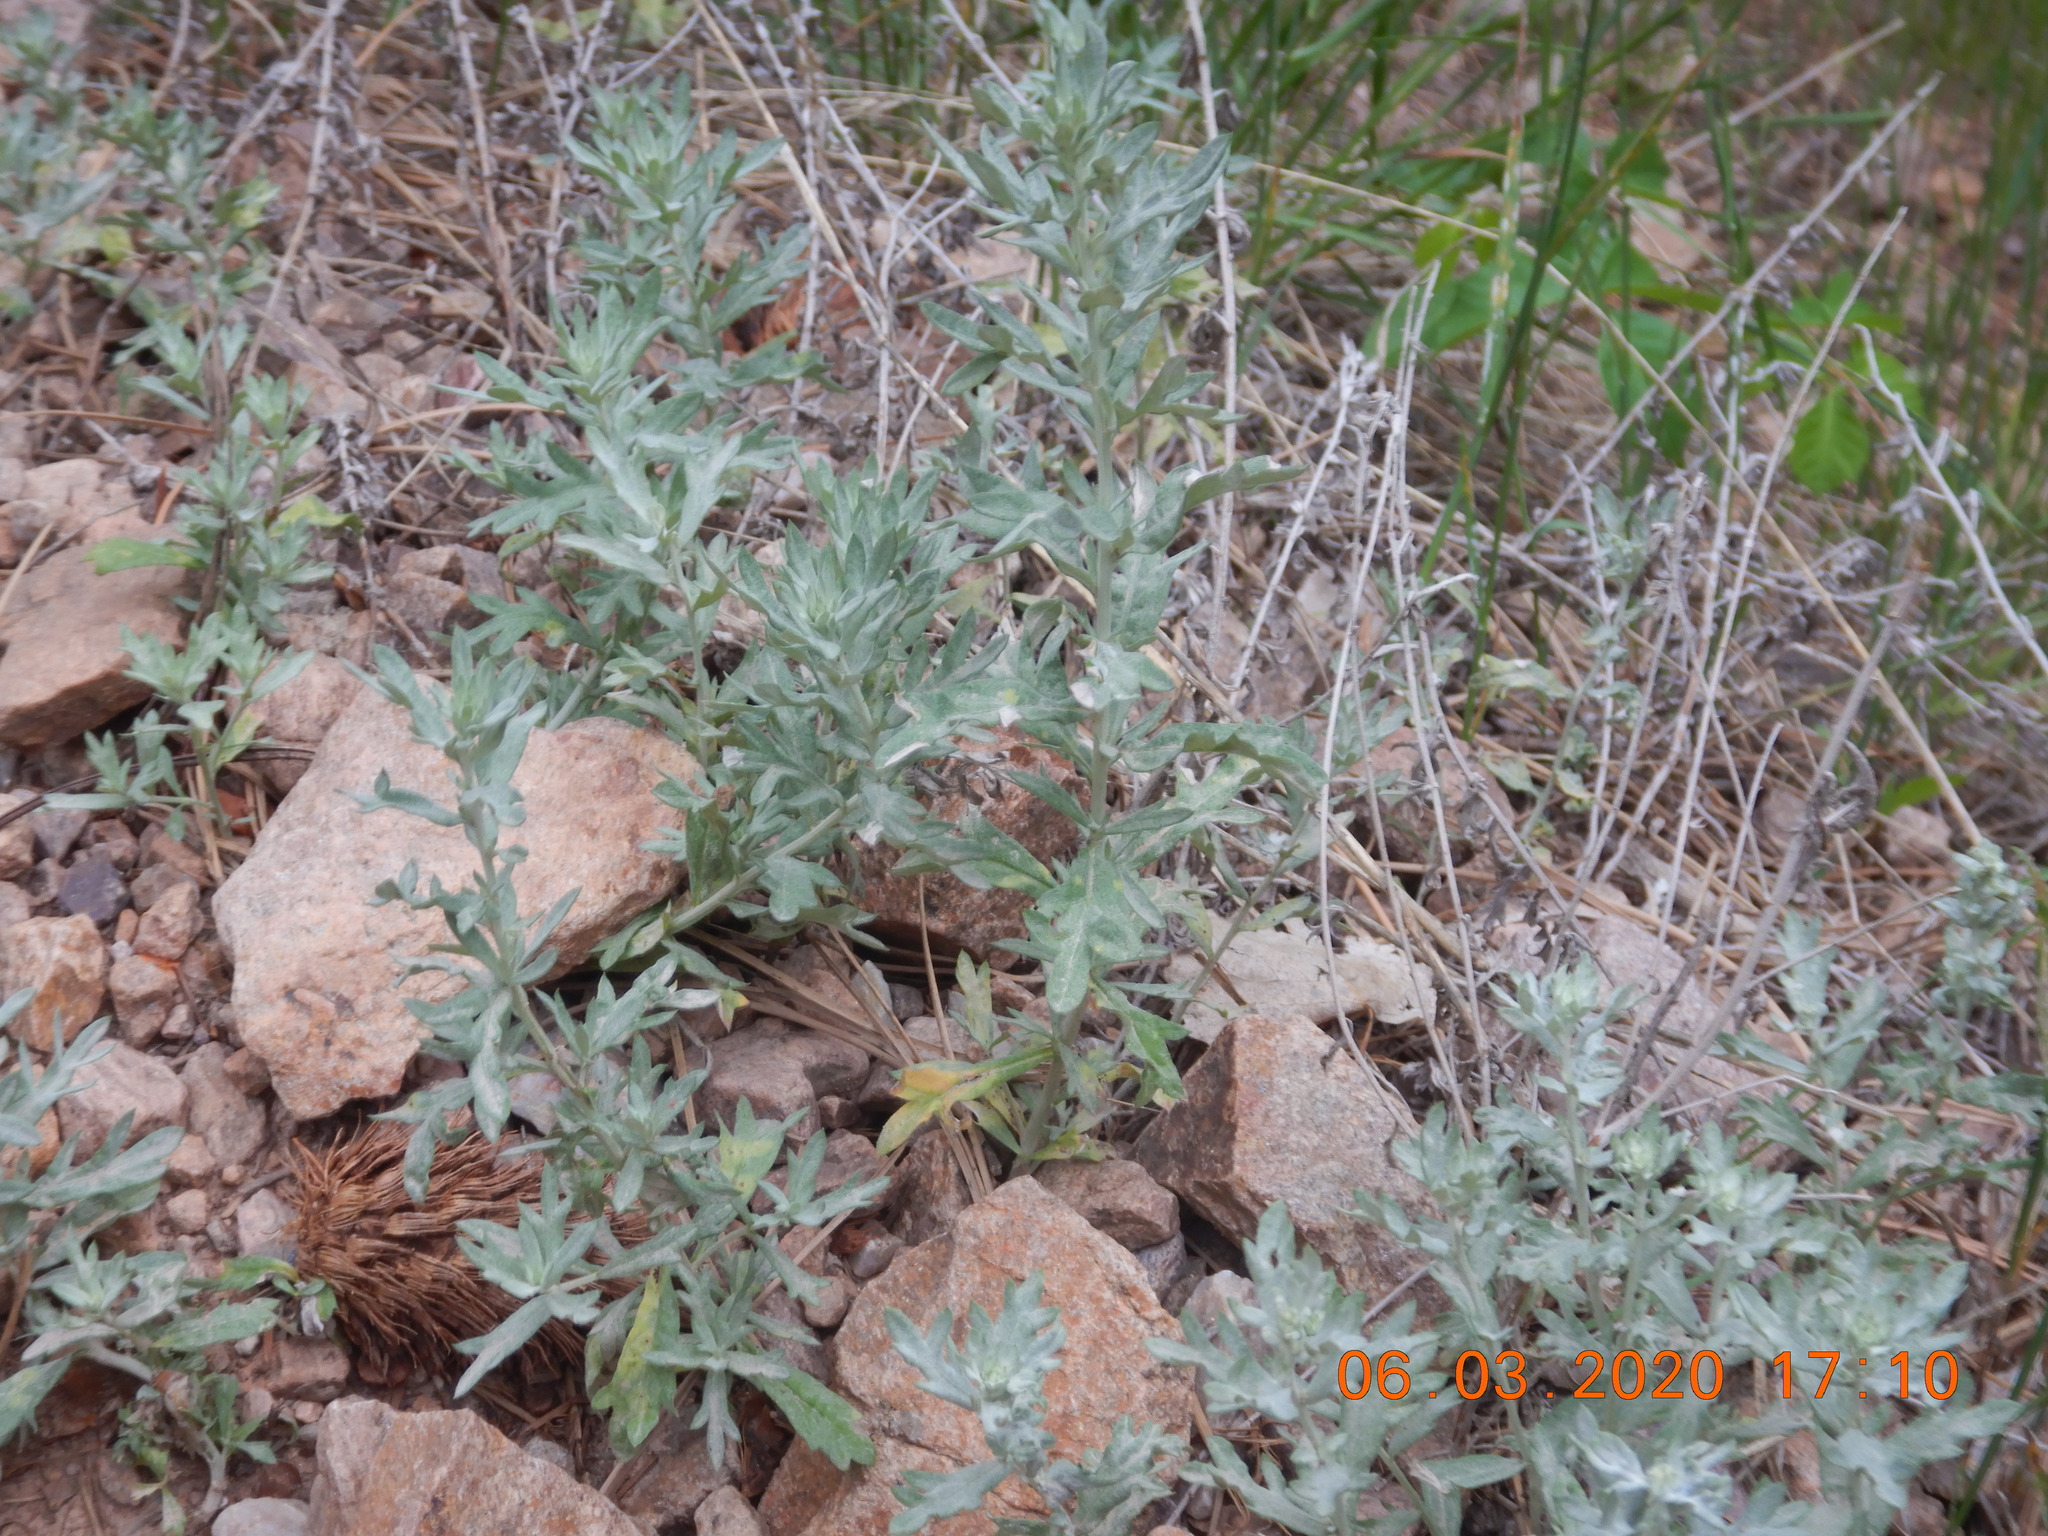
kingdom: Plantae
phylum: Tracheophyta
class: Magnoliopsida
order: Asterales
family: Asteraceae
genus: Artemisia
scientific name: Artemisia ludoviciana
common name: Western mugwort
